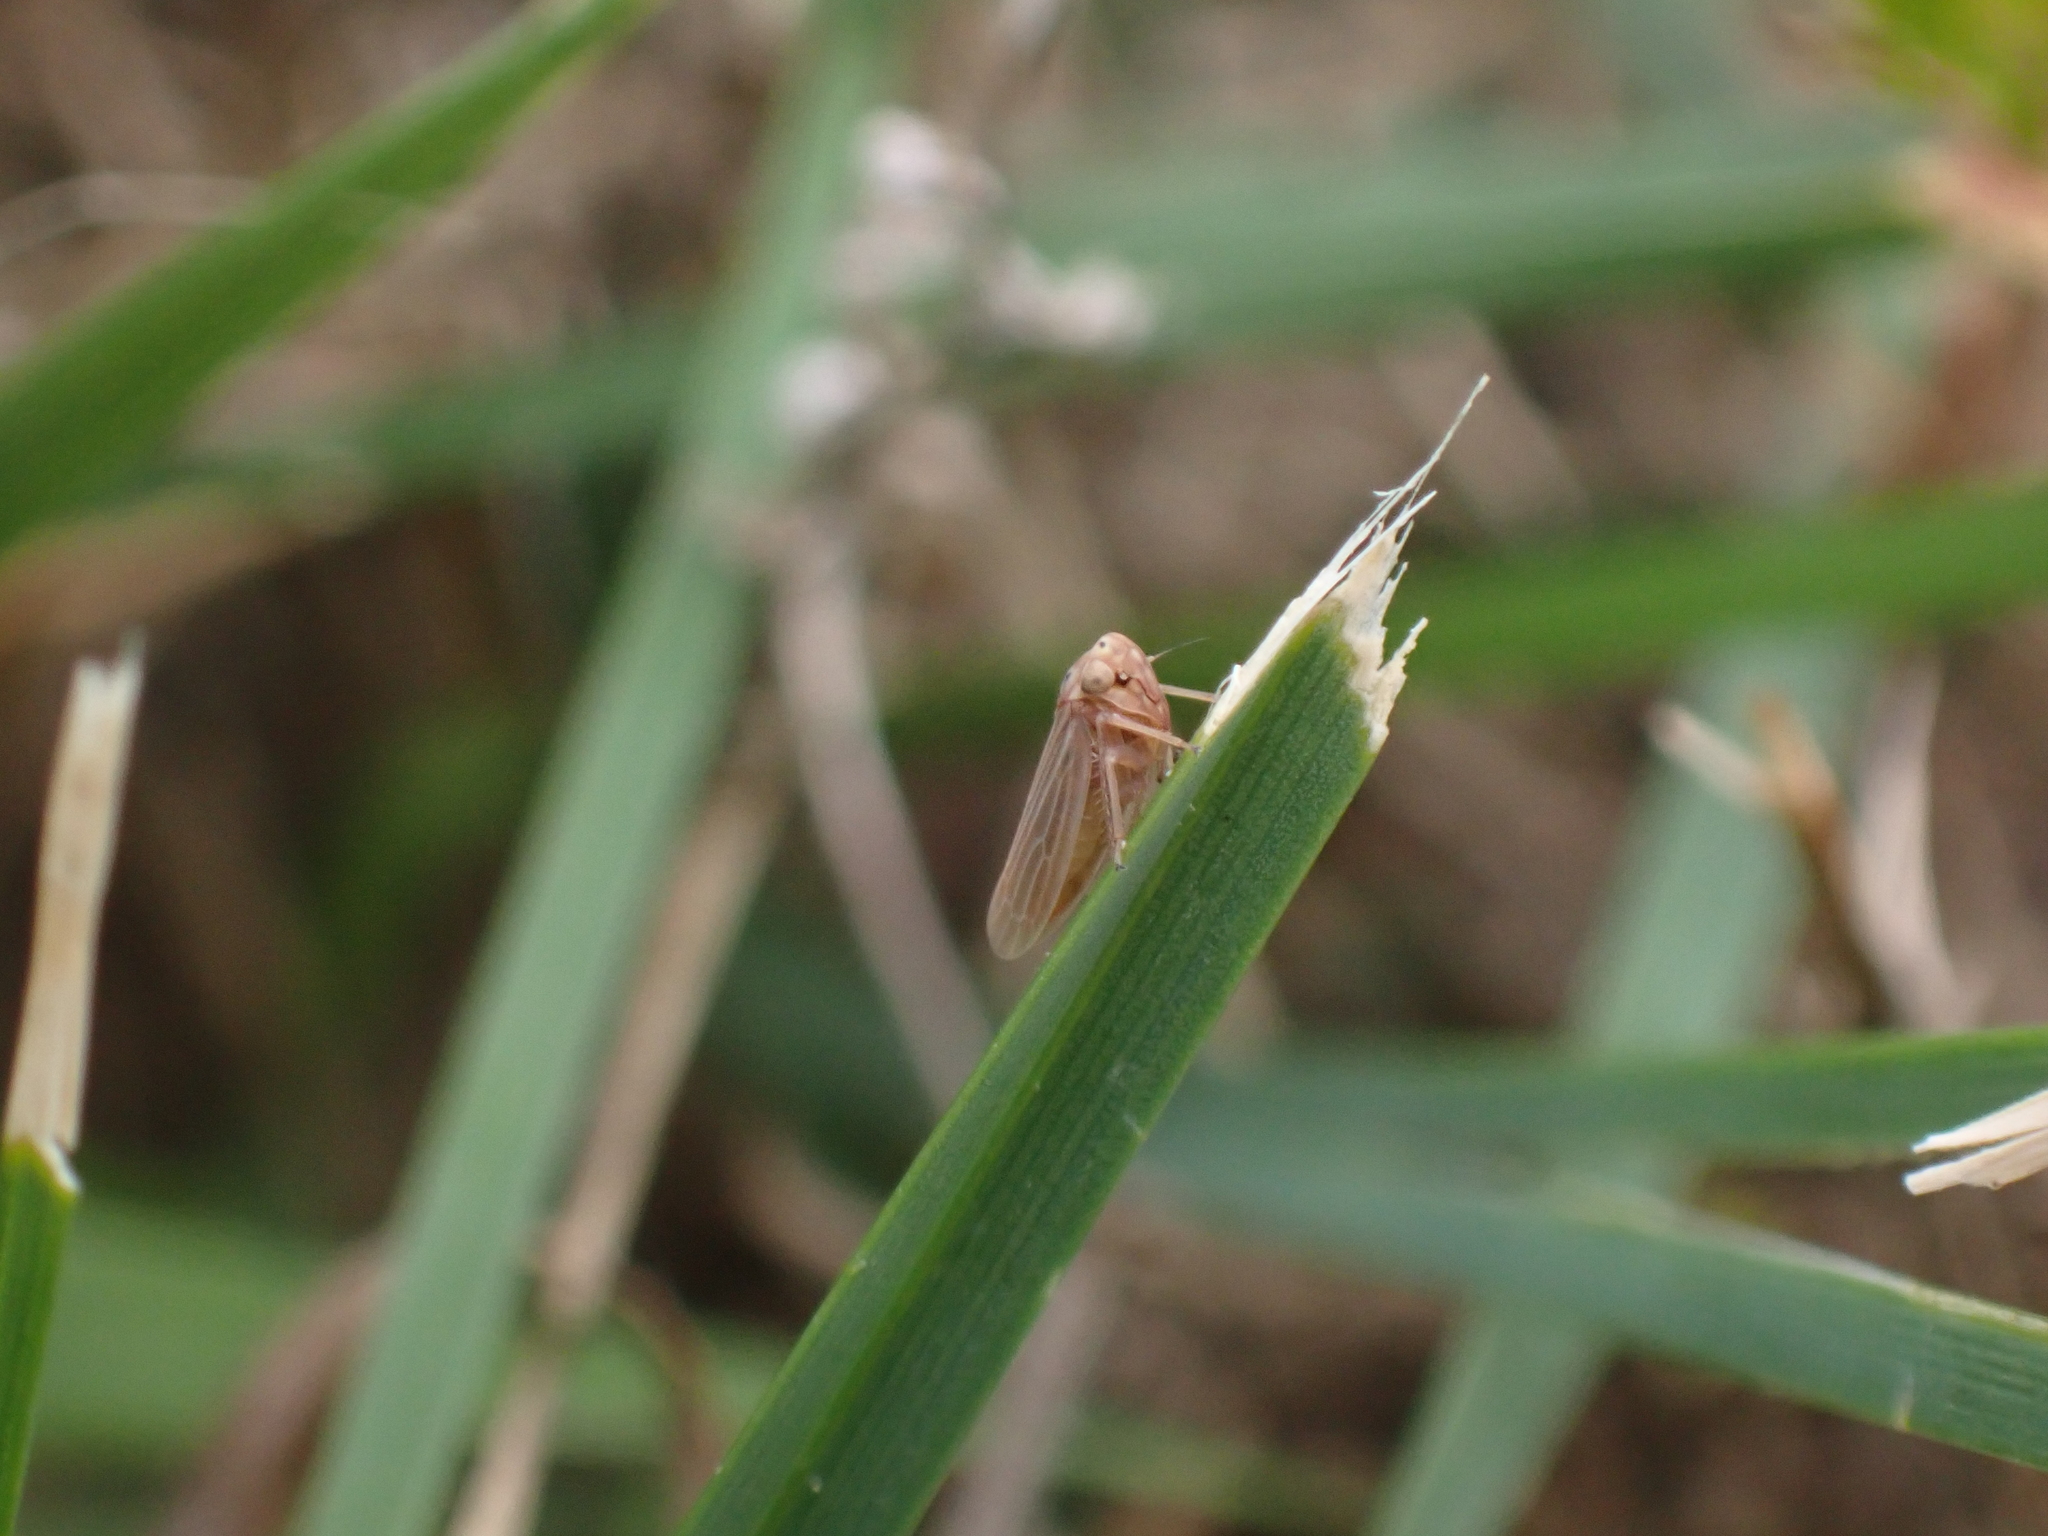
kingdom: Animalia
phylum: Arthropoda
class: Insecta
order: Hemiptera
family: Cicadellidae
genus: Agallia
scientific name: Agallia constricta
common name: The constricted leafhopper
